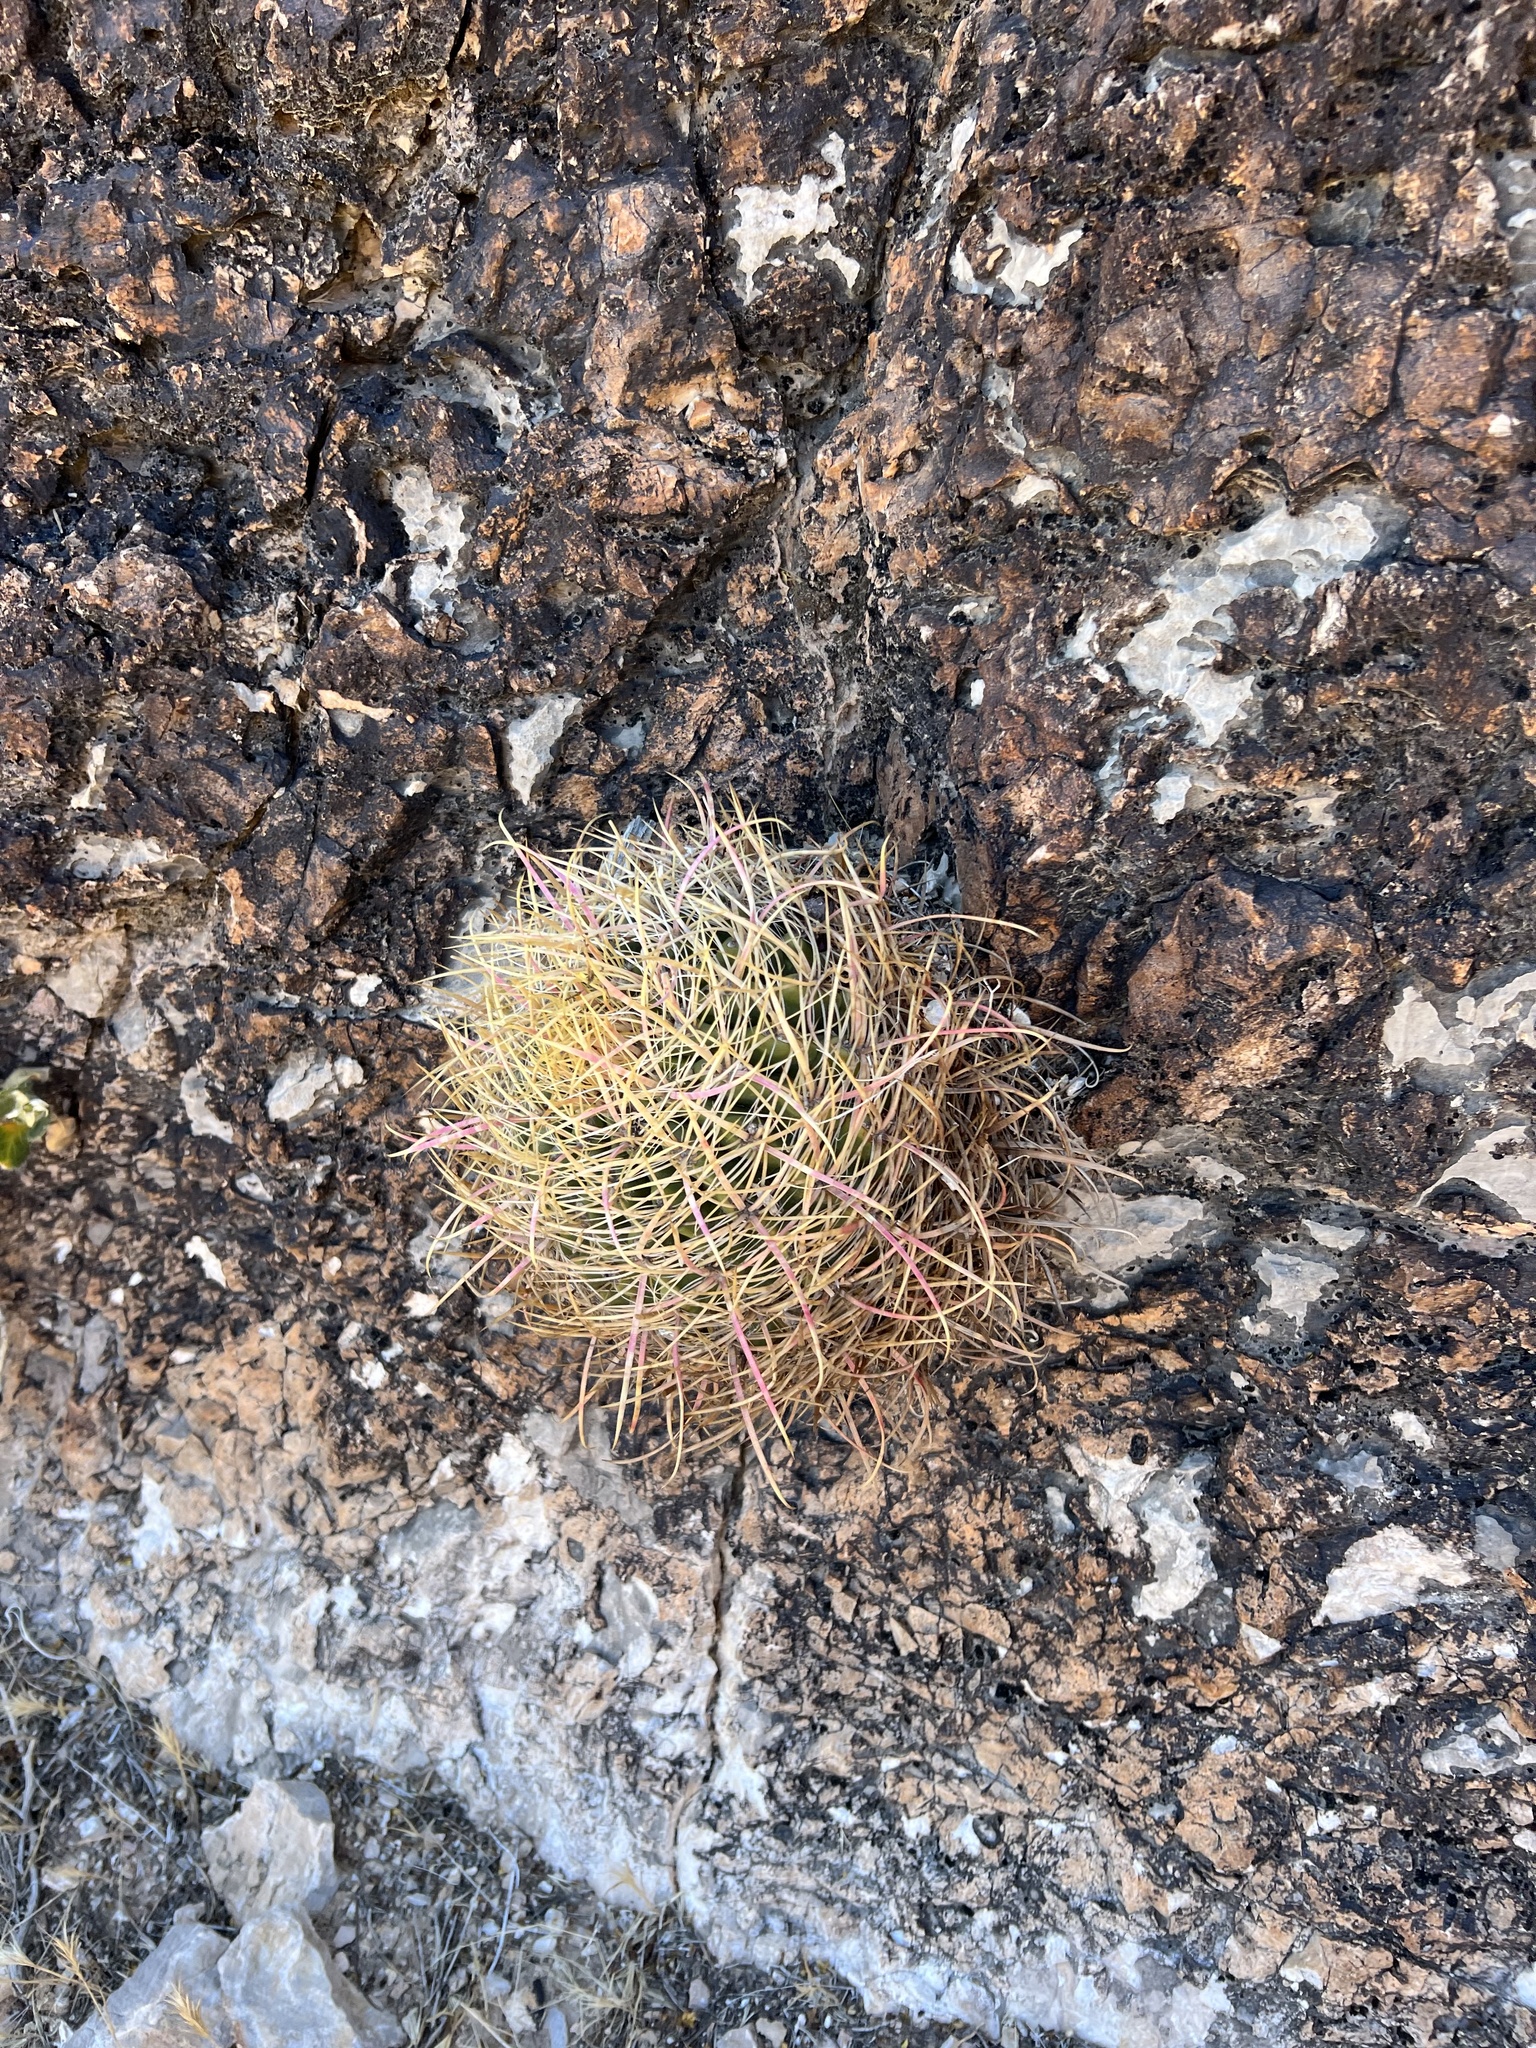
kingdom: Plantae
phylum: Tracheophyta
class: Magnoliopsida
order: Caryophyllales
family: Cactaceae
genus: Ferocactus
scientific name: Ferocactus cylindraceus
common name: California barrel cactus
